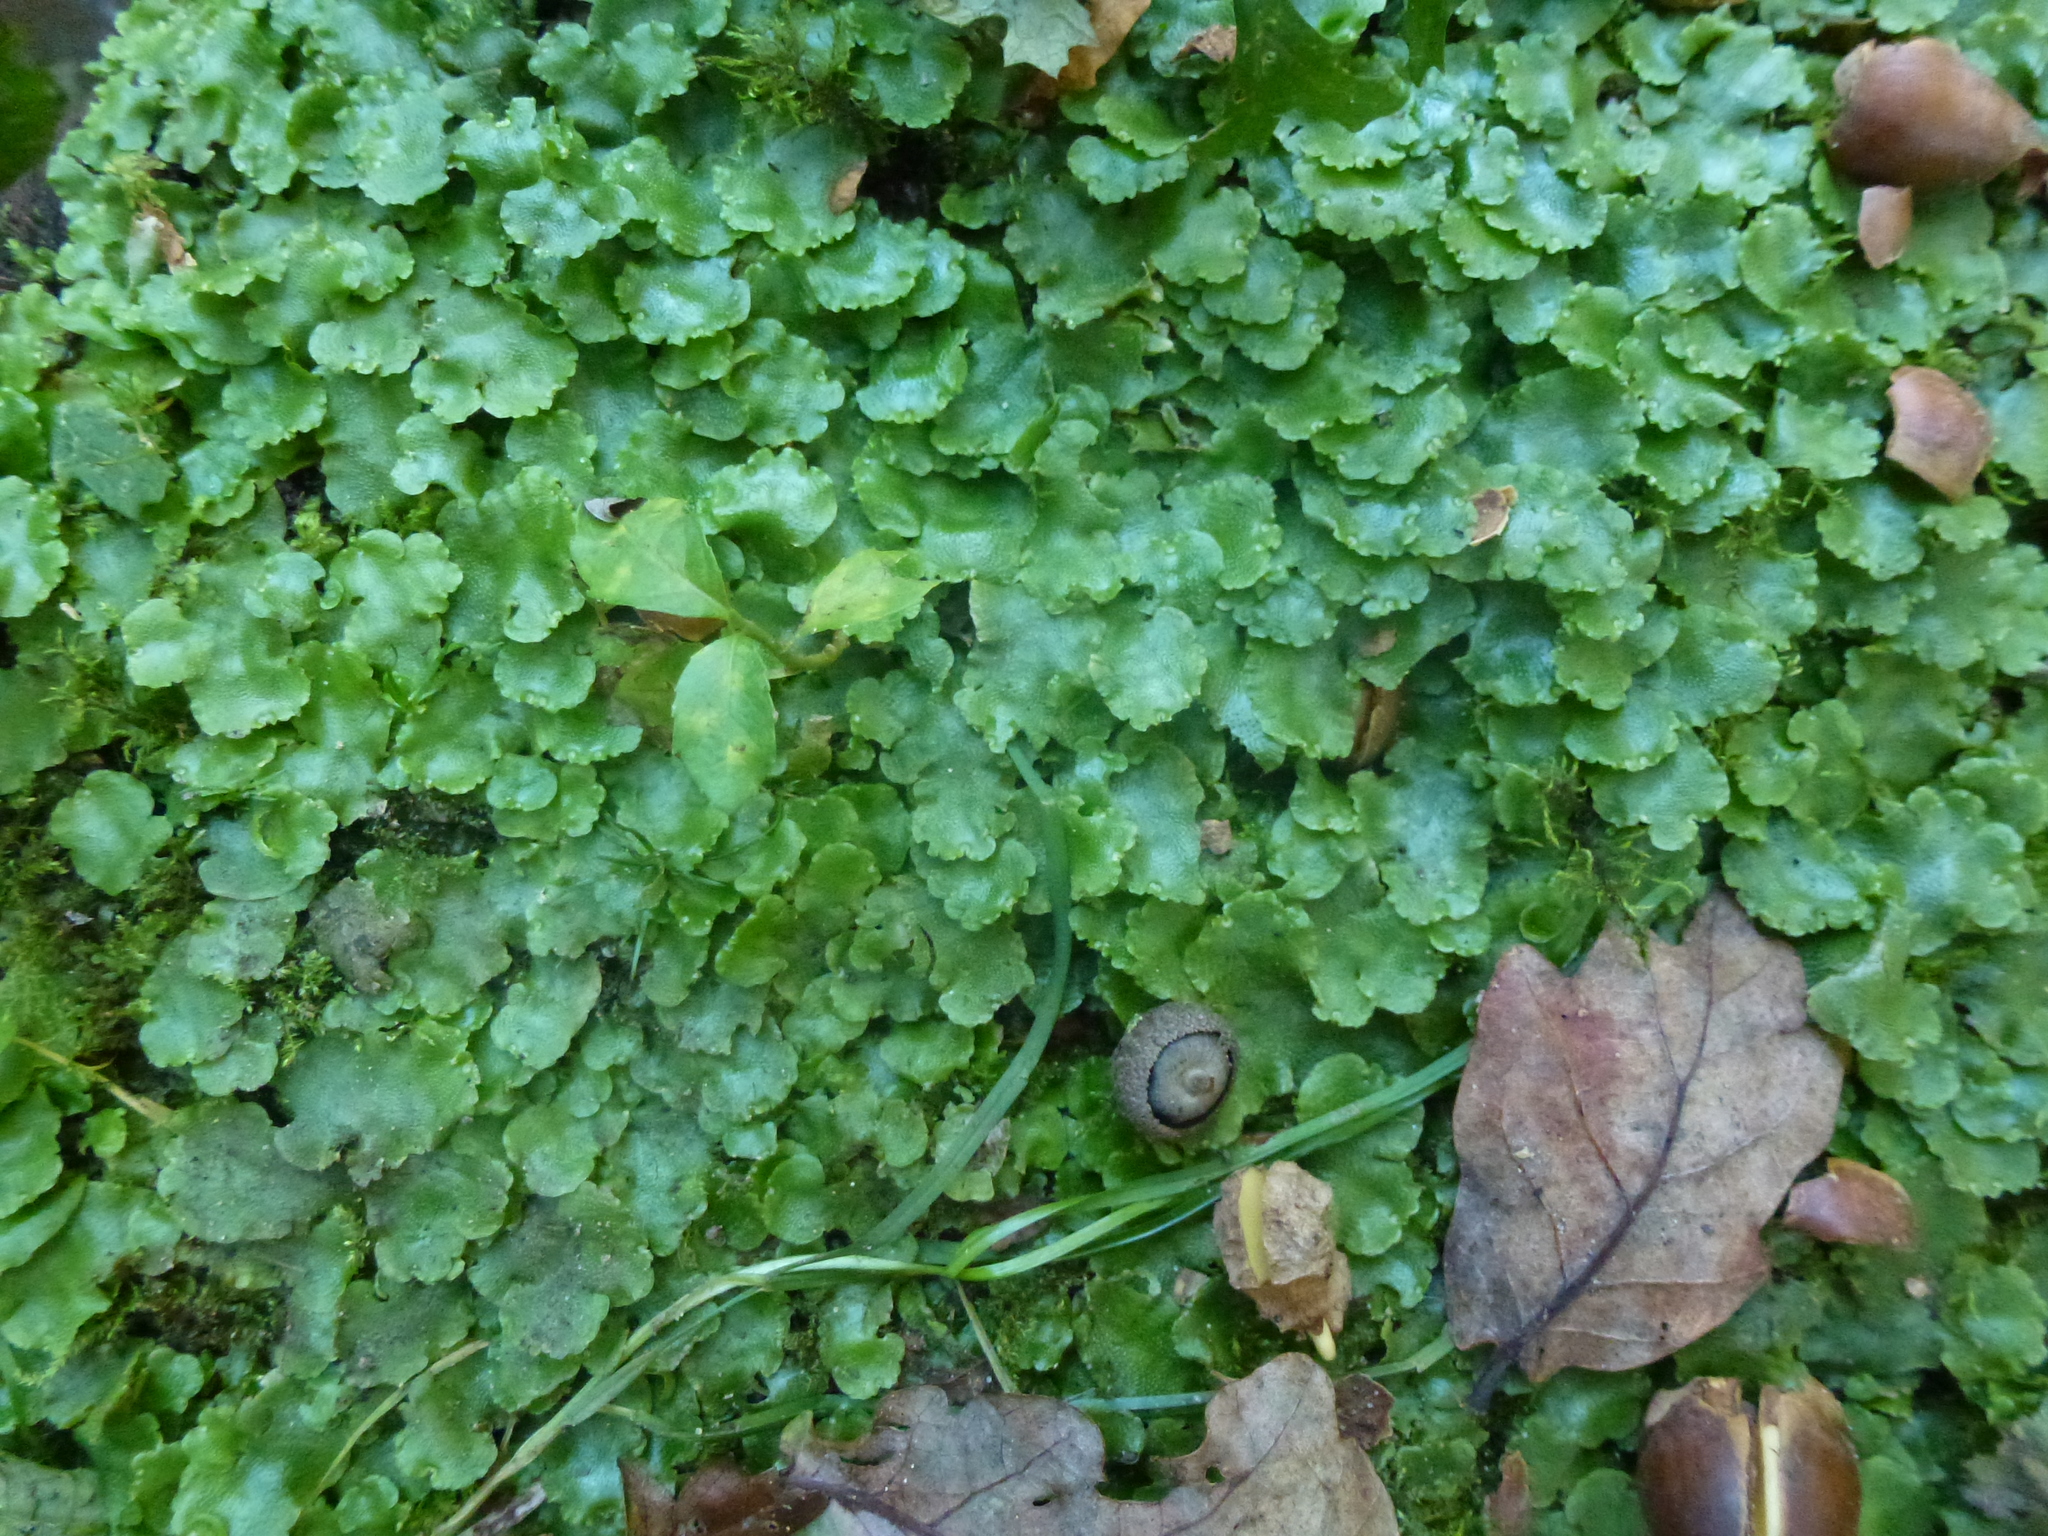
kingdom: Plantae
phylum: Marchantiophyta
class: Marchantiopsida
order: Lunulariales
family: Lunulariaceae
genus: Lunularia
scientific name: Lunularia cruciata
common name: Crescent-cup liverwort
